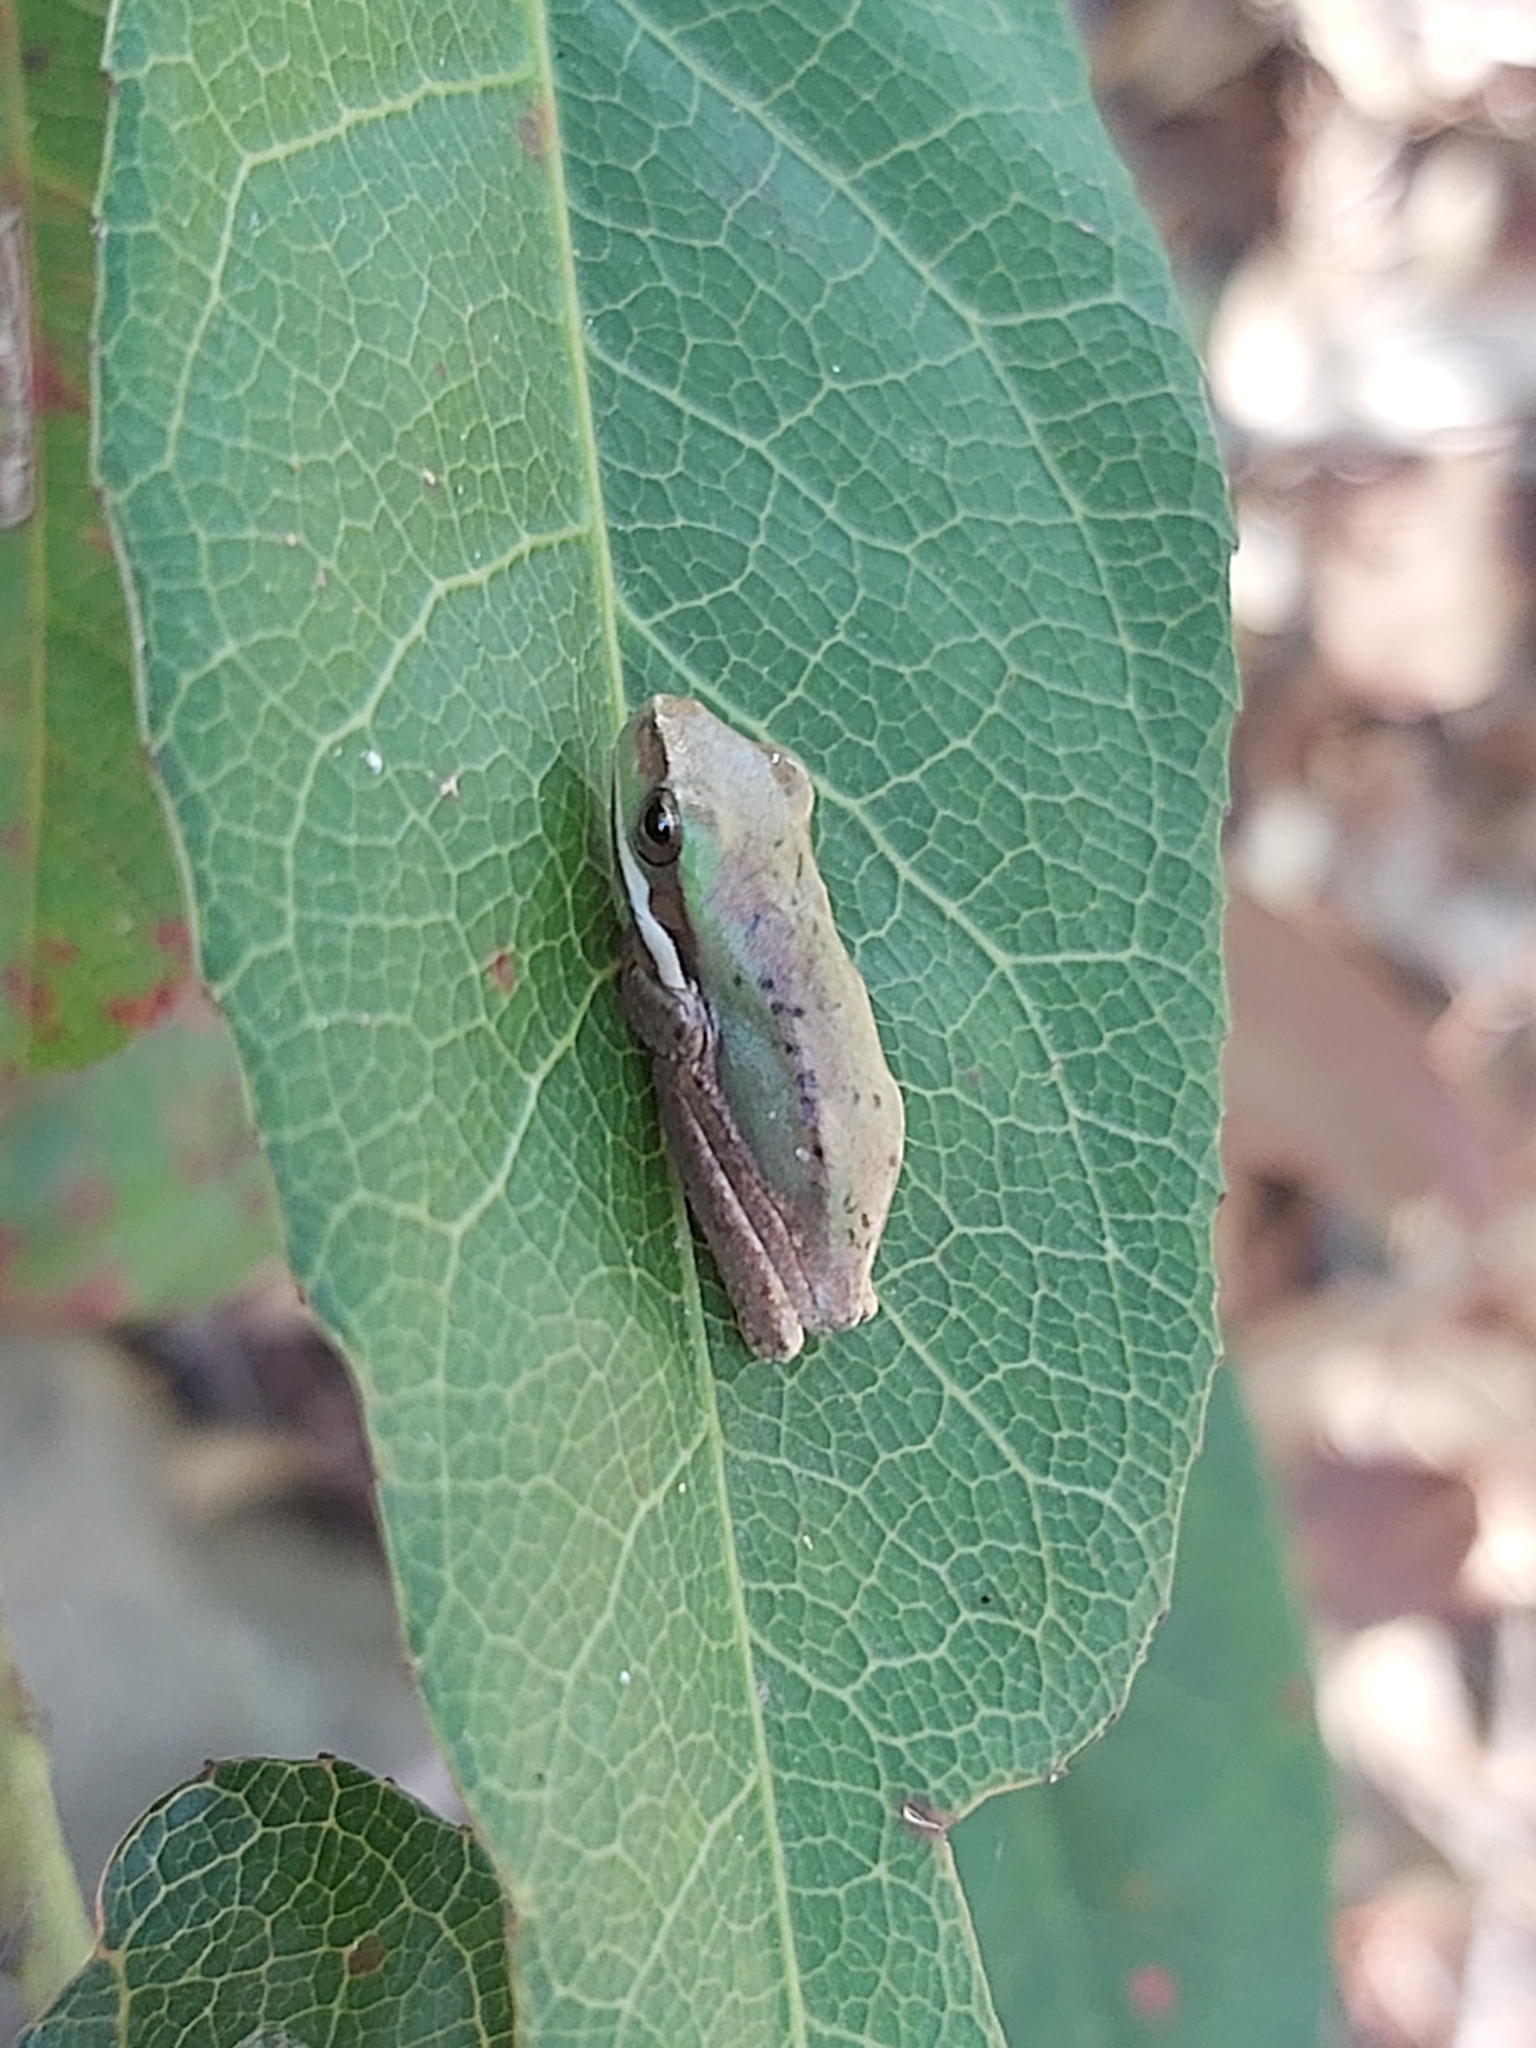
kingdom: Animalia
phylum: Chordata
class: Amphibia
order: Anura
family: Pelodryadidae
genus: Litoria
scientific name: Litoria fallax
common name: Eastern dwarf treefrog
